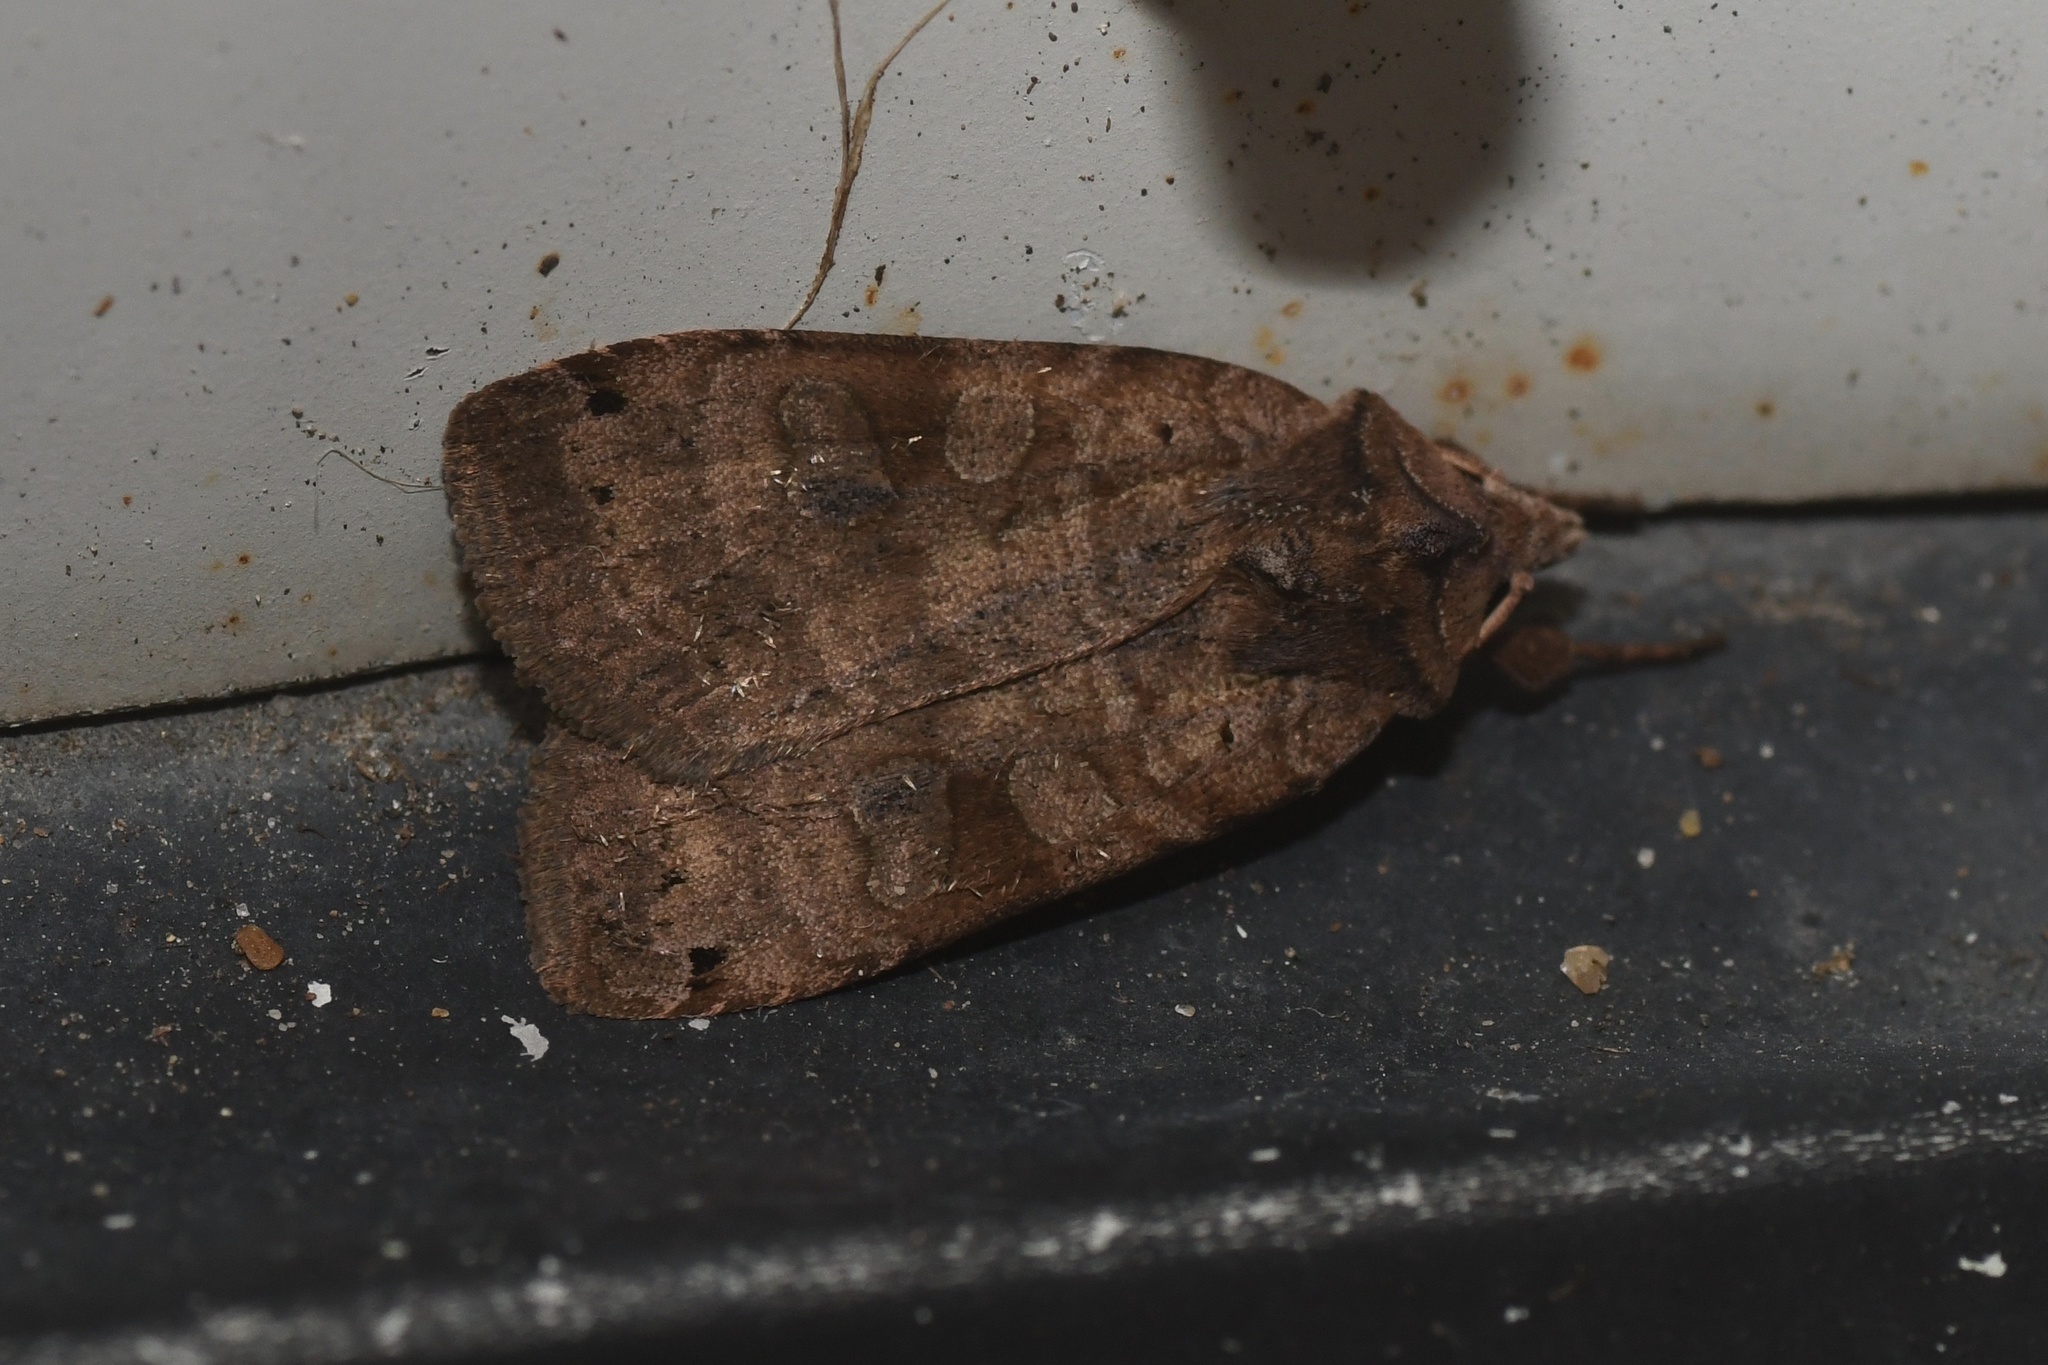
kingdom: Animalia
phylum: Arthropoda
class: Insecta
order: Lepidoptera
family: Noctuidae
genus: Xestia
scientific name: Xestia smithii
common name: Smith's dart
